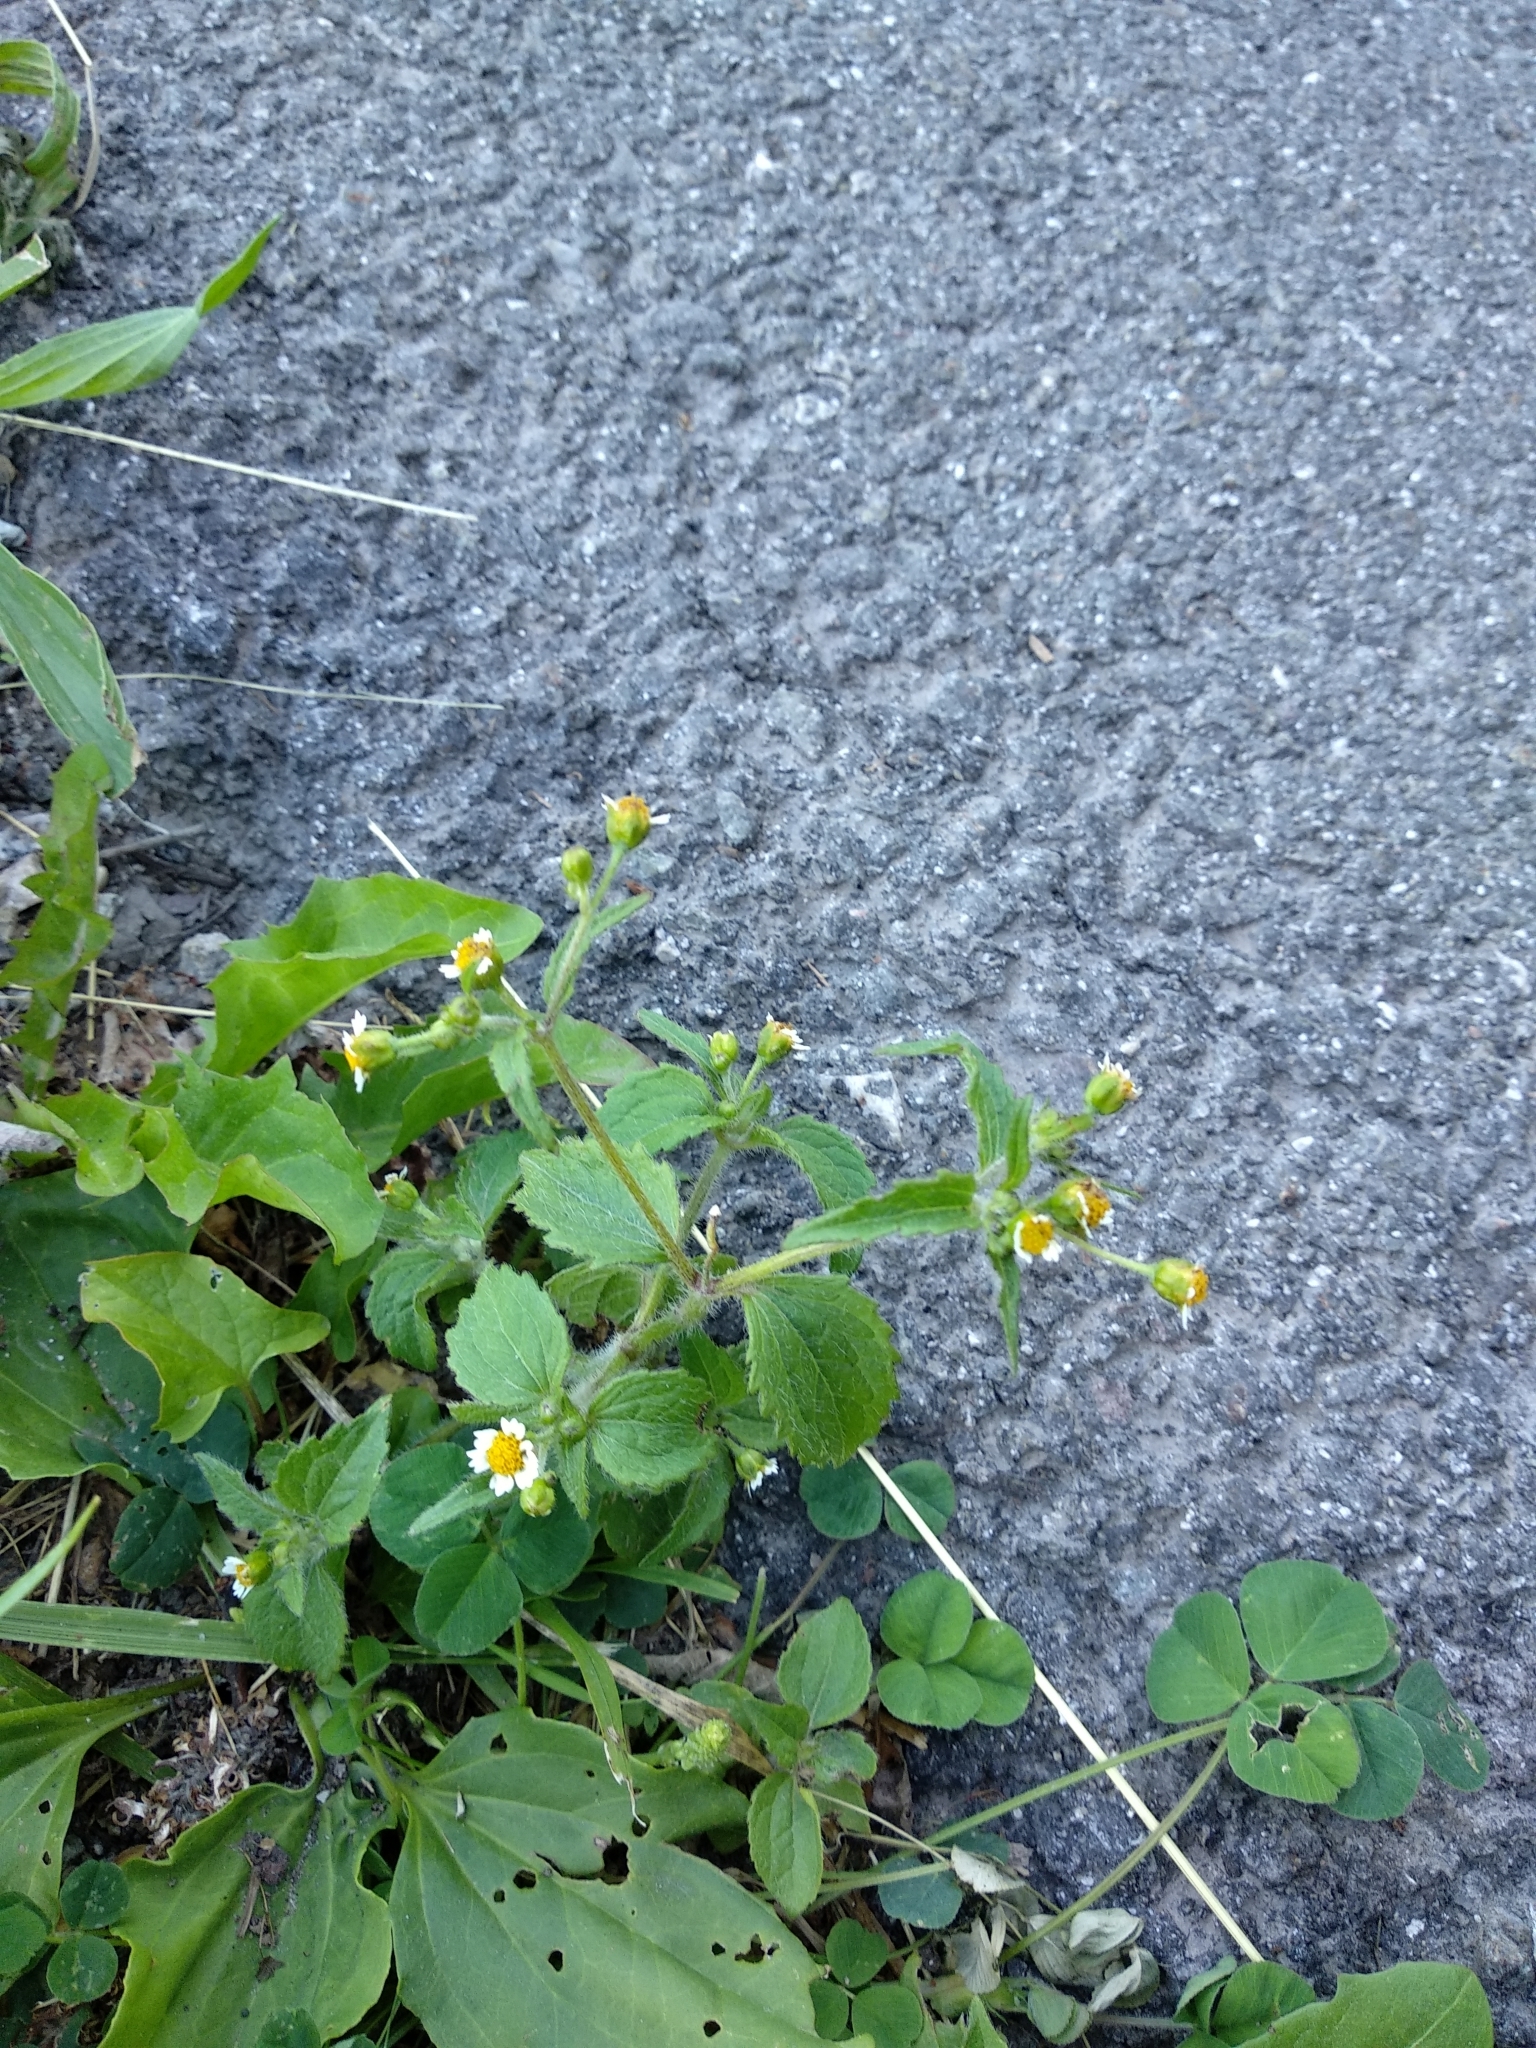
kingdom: Plantae
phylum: Tracheophyta
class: Magnoliopsida
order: Asterales
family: Asteraceae
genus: Galinsoga
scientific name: Galinsoga quadriradiata
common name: Shaggy soldier
